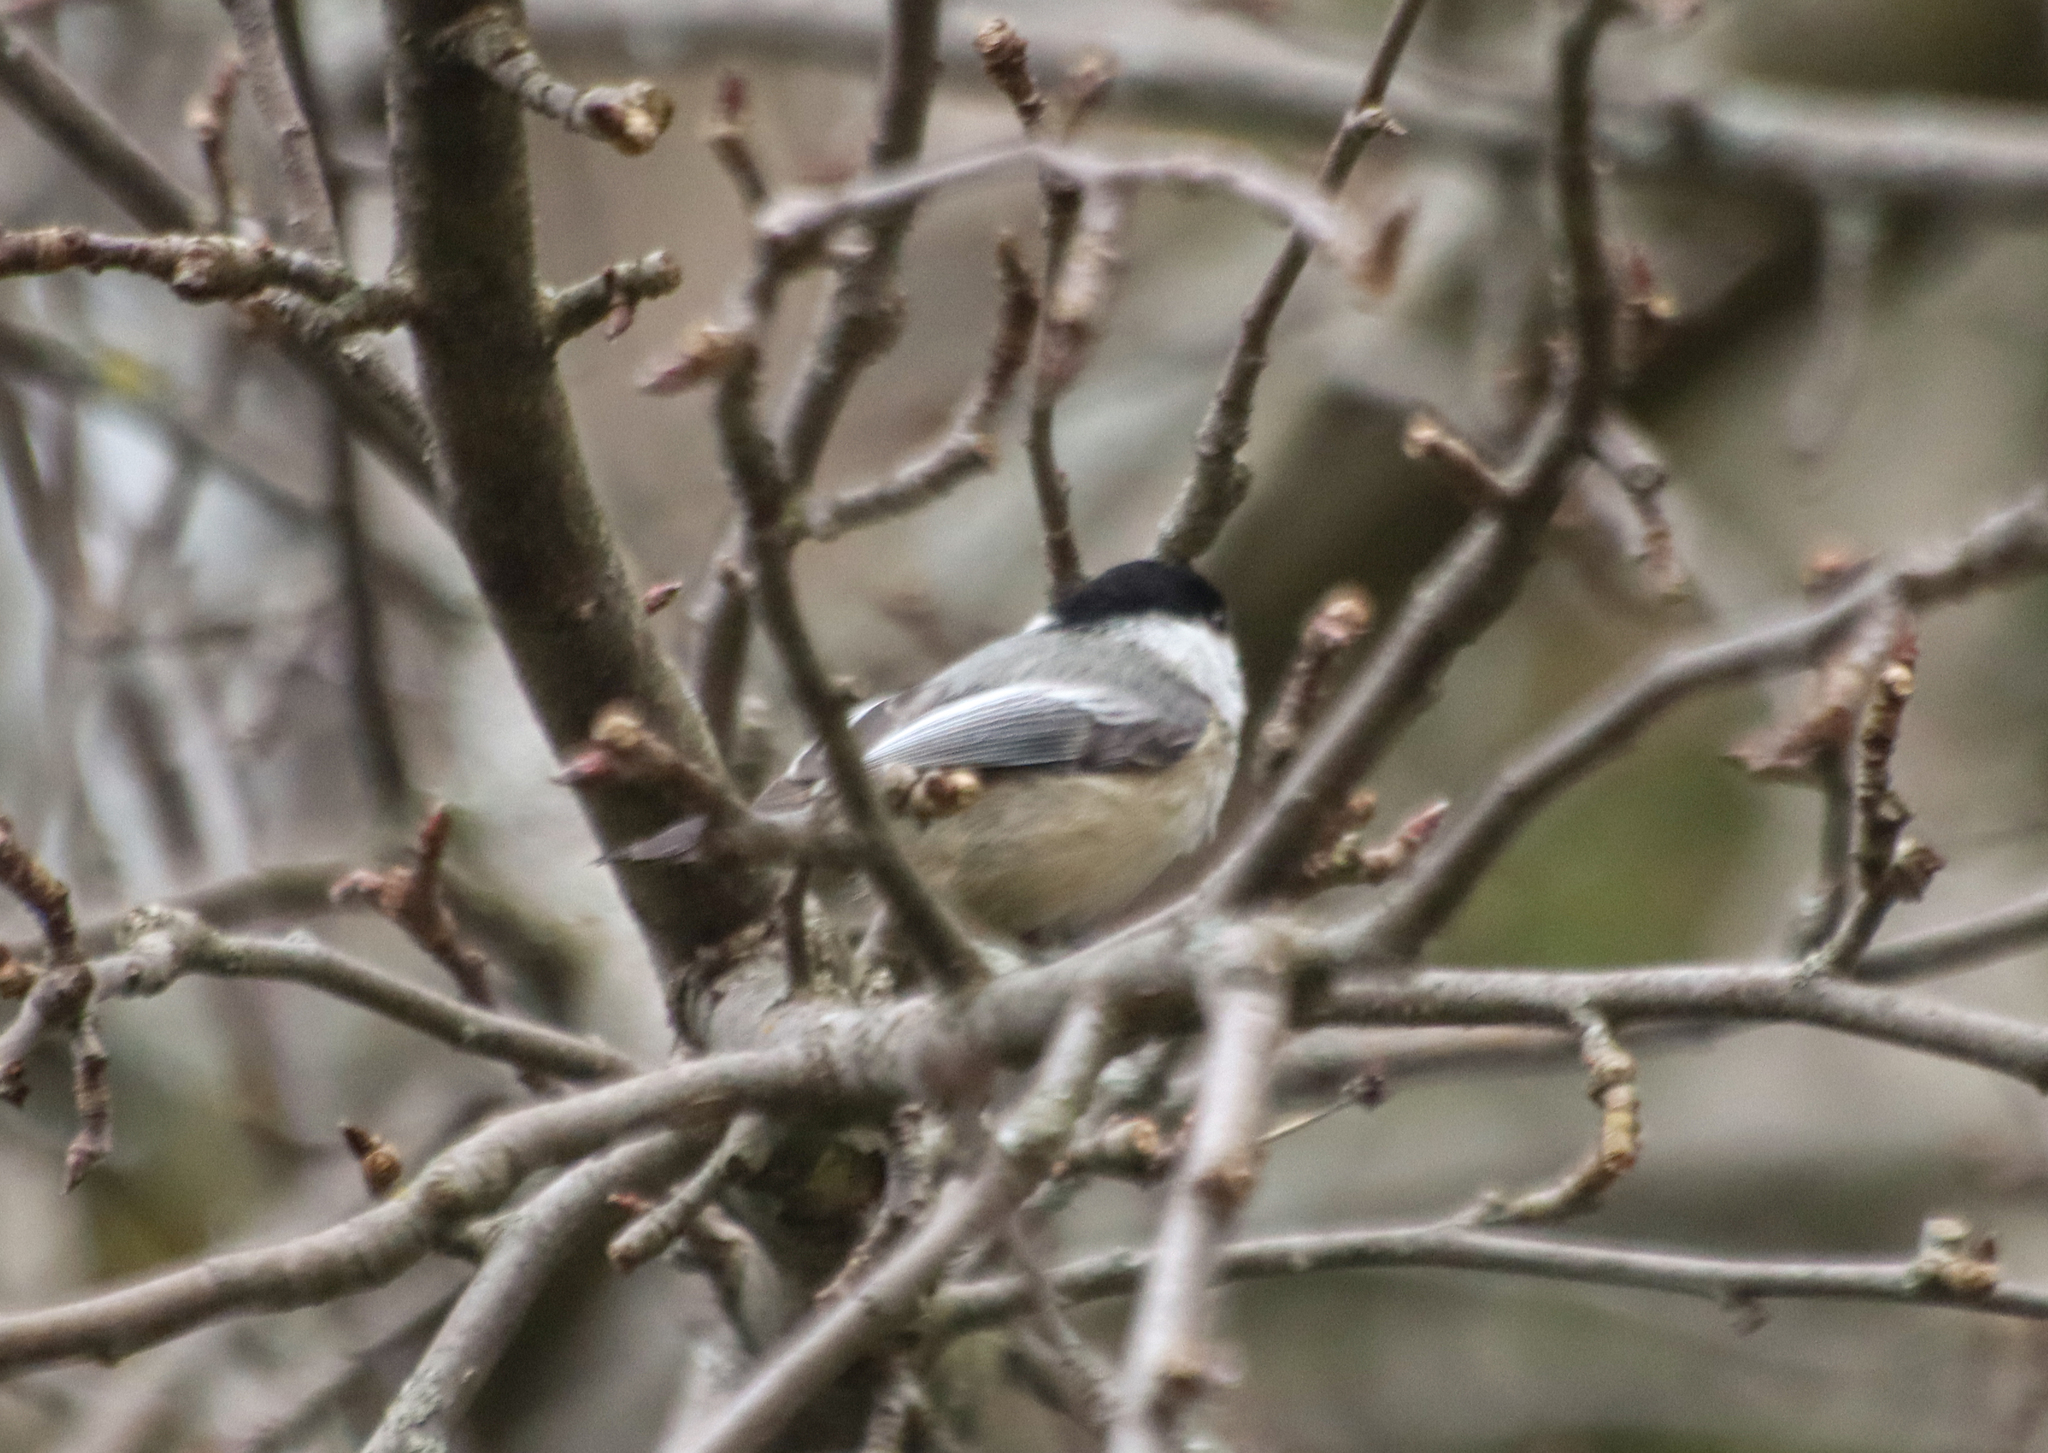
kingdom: Animalia
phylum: Chordata
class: Aves
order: Passeriformes
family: Paridae
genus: Poecile
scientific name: Poecile atricapillus
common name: Black-capped chickadee
